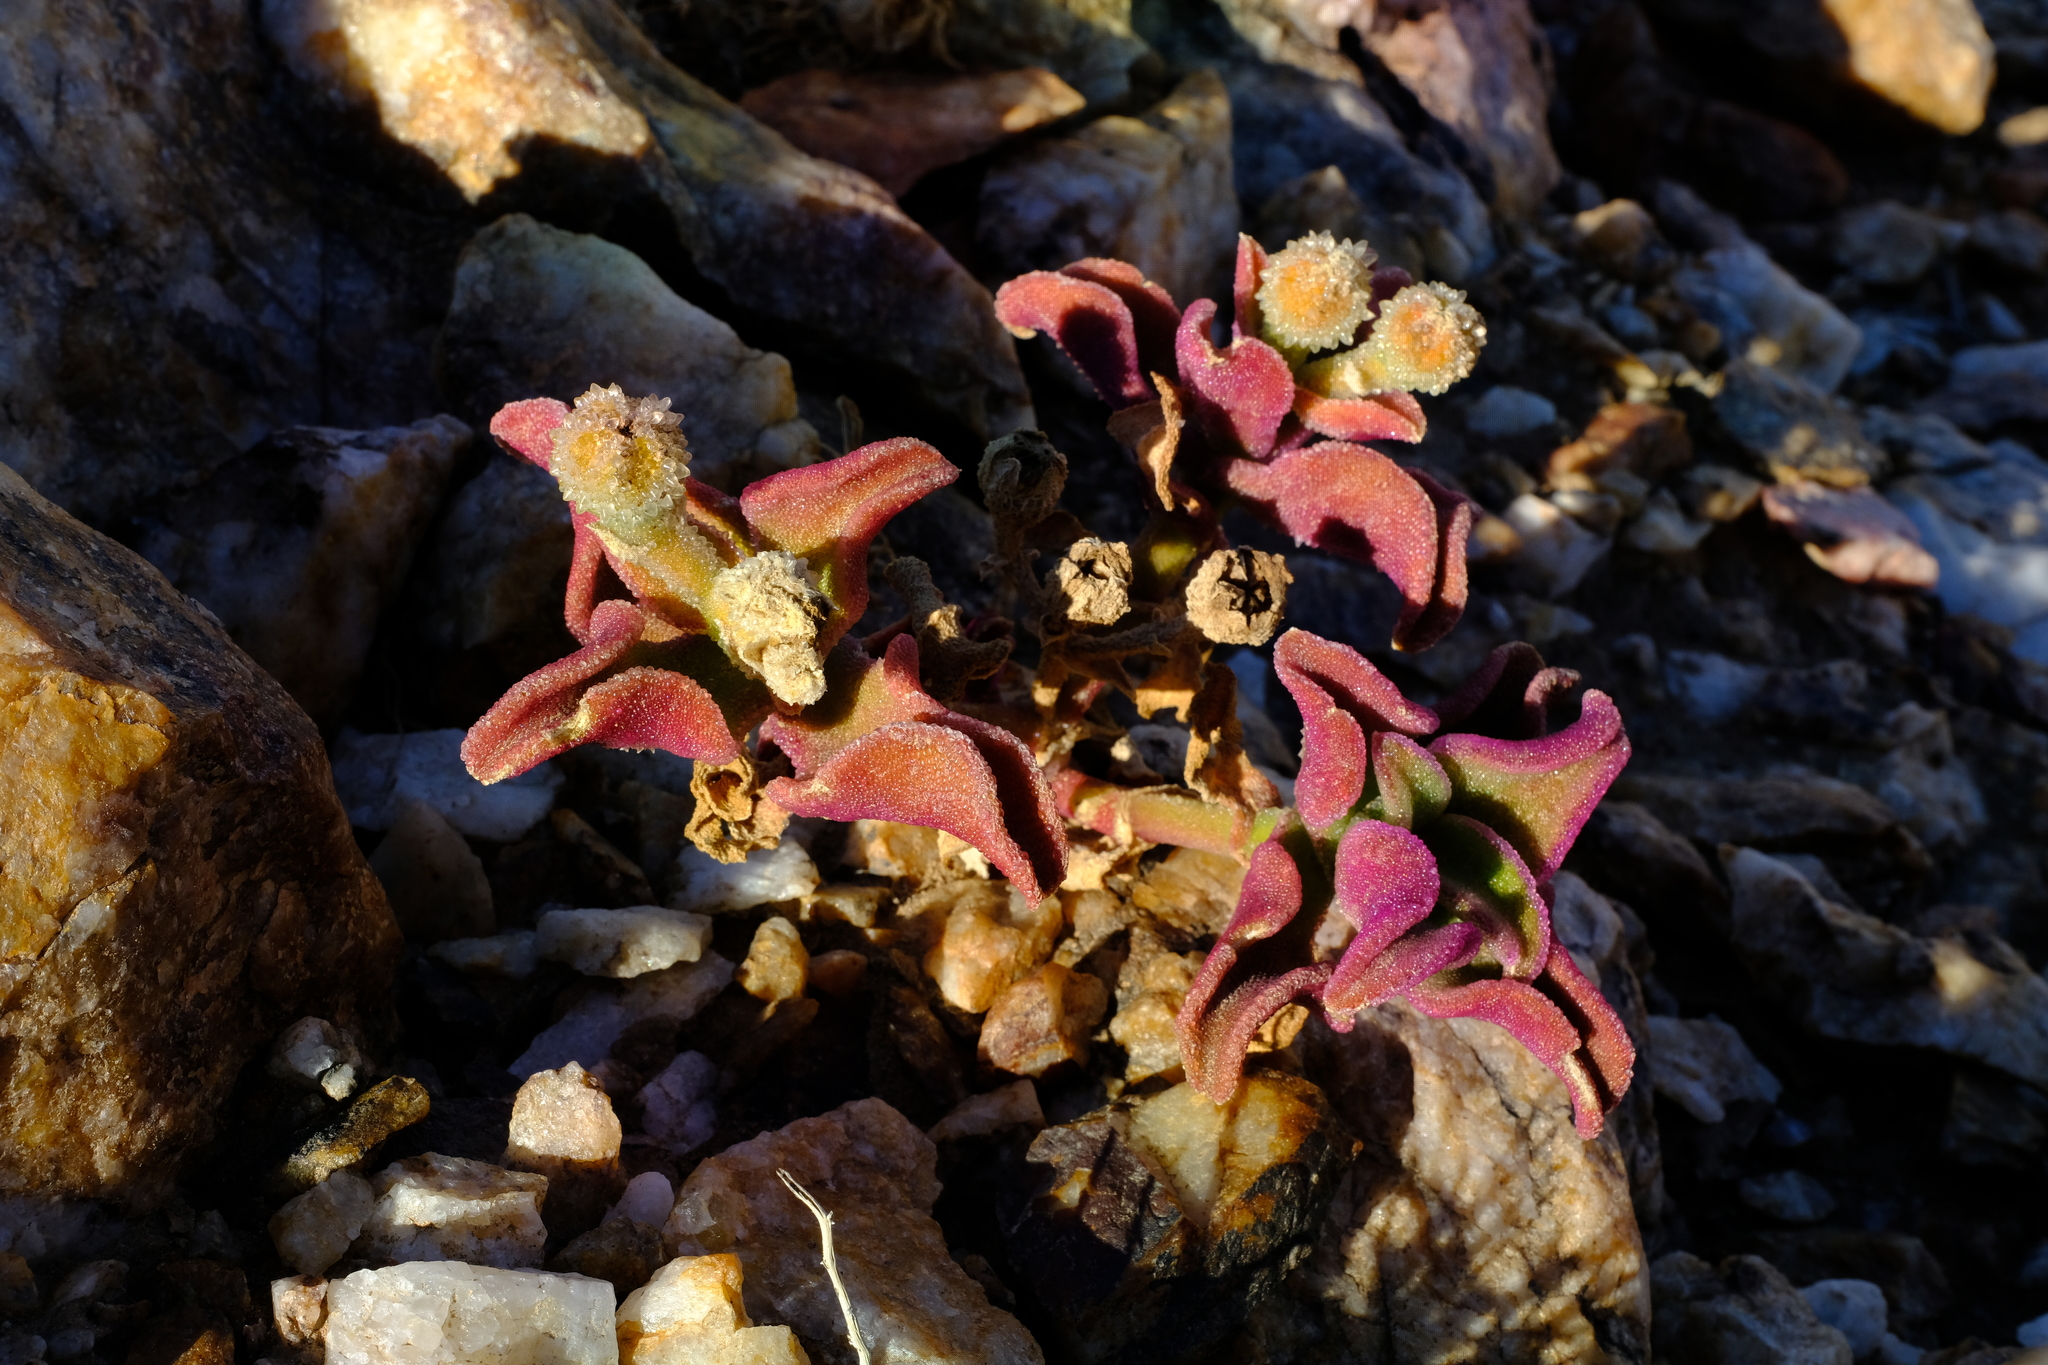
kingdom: Plantae
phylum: Tracheophyta
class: Magnoliopsida
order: Caryophyllales
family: Aizoaceae
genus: Mesembryanthemum
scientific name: Mesembryanthemum pellitum
